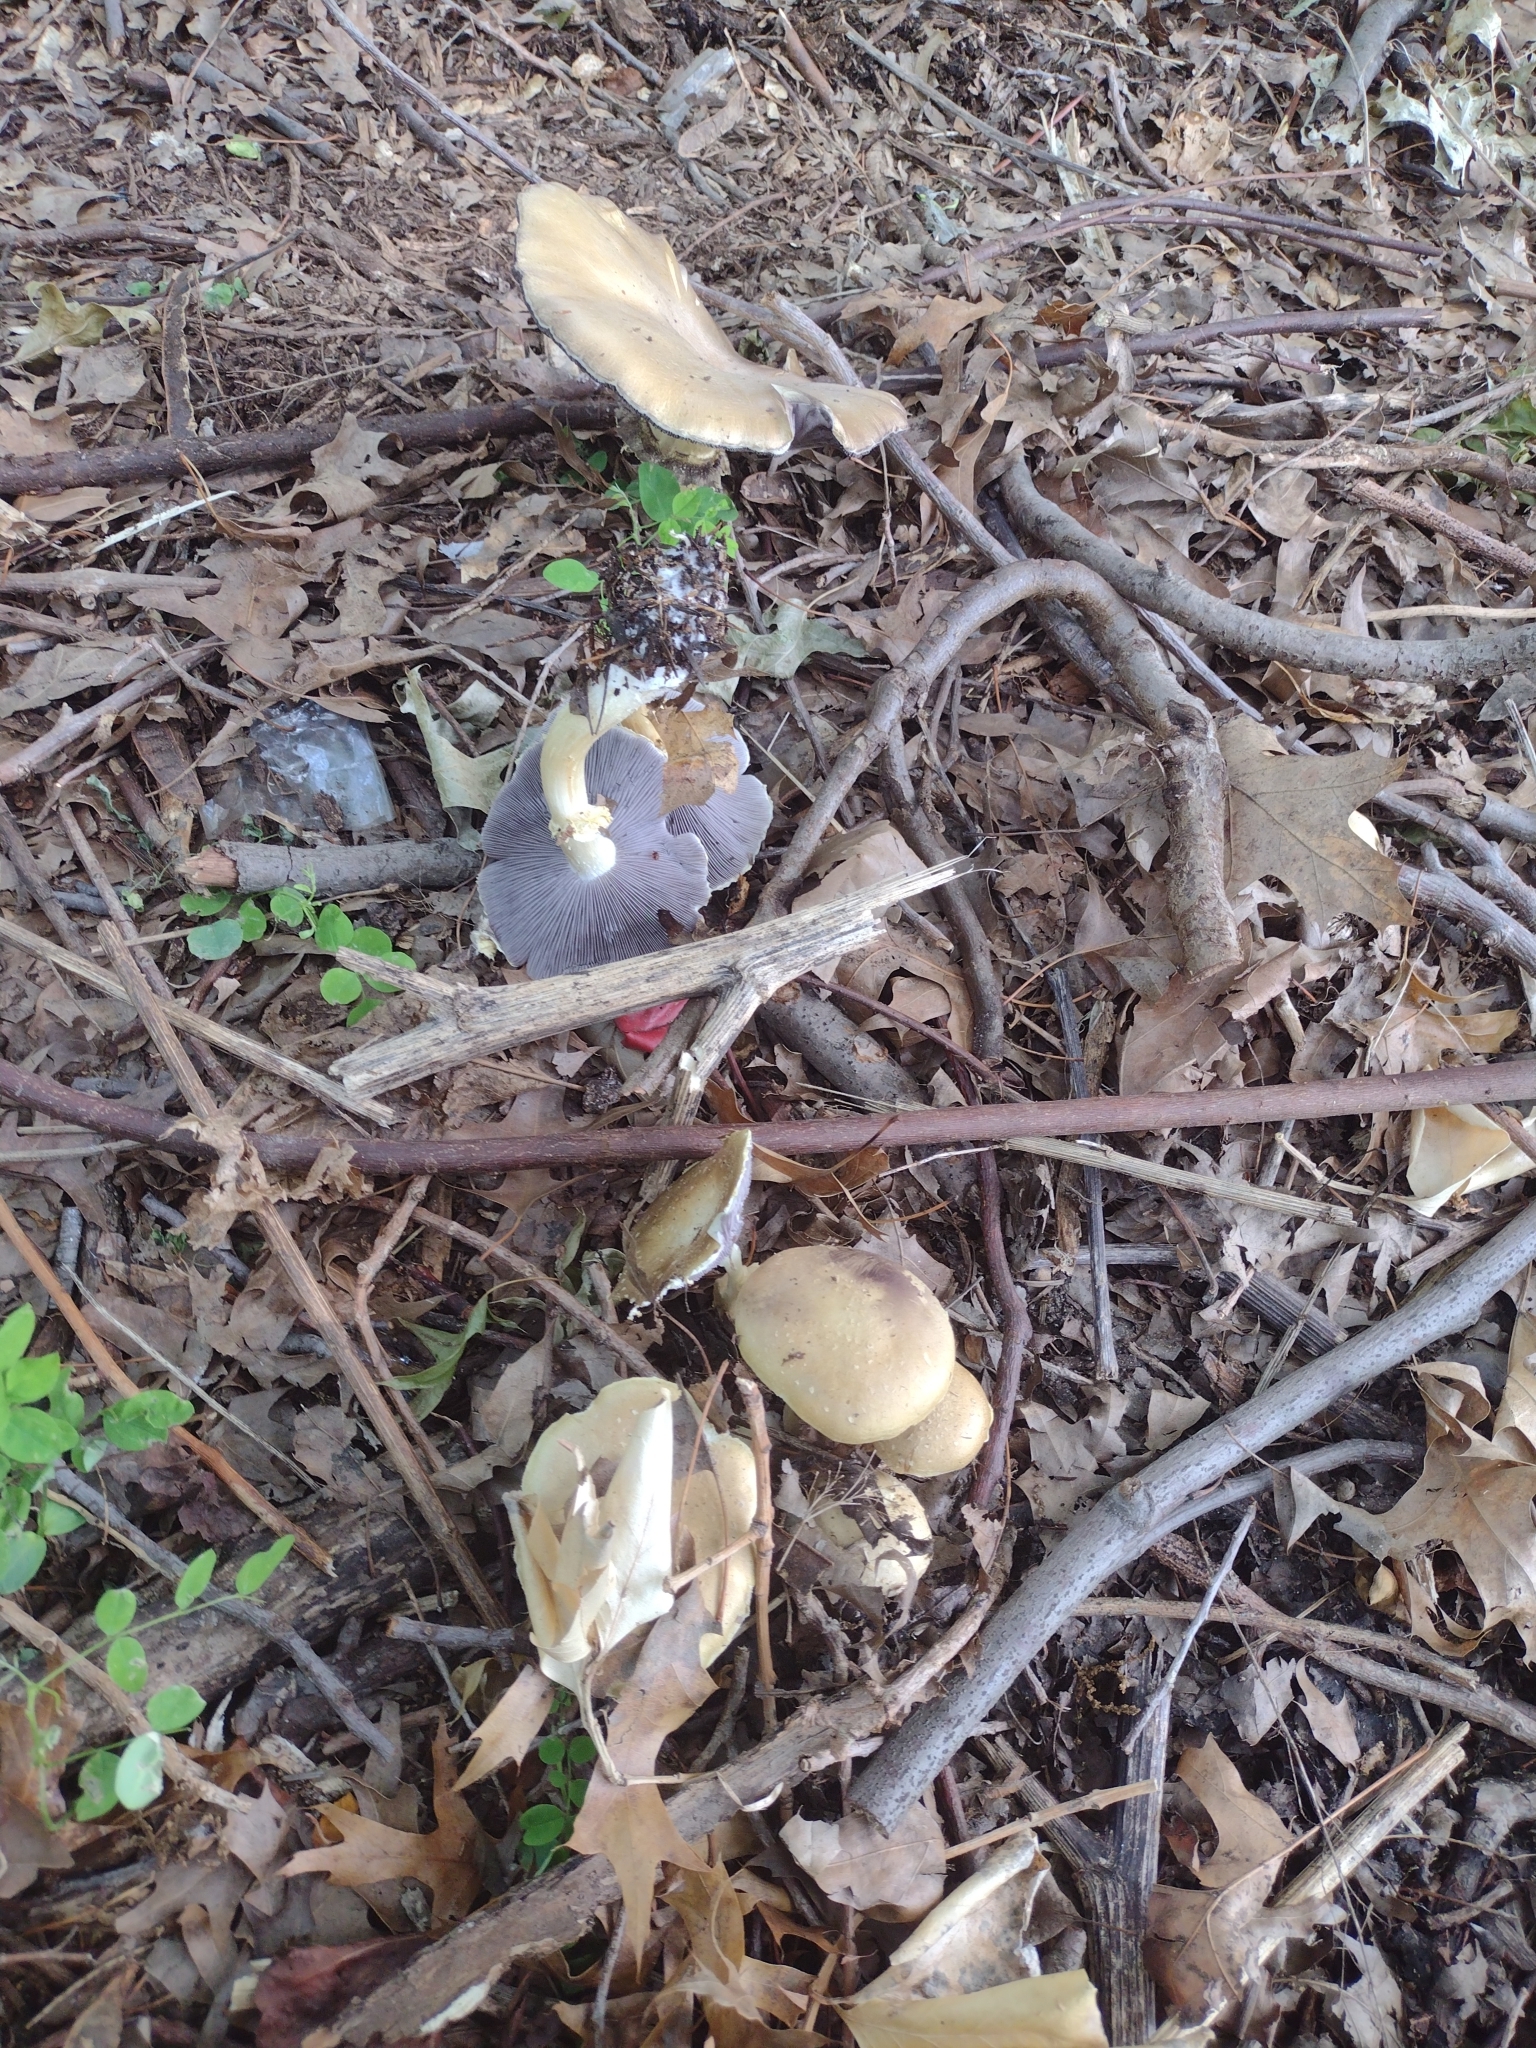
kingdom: Fungi
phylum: Basidiomycota
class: Agaricomycetes
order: Agaricales
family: Strophariaceae
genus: Stropharia
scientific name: Stropharia rugosoannulata
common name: Wine roundhead
